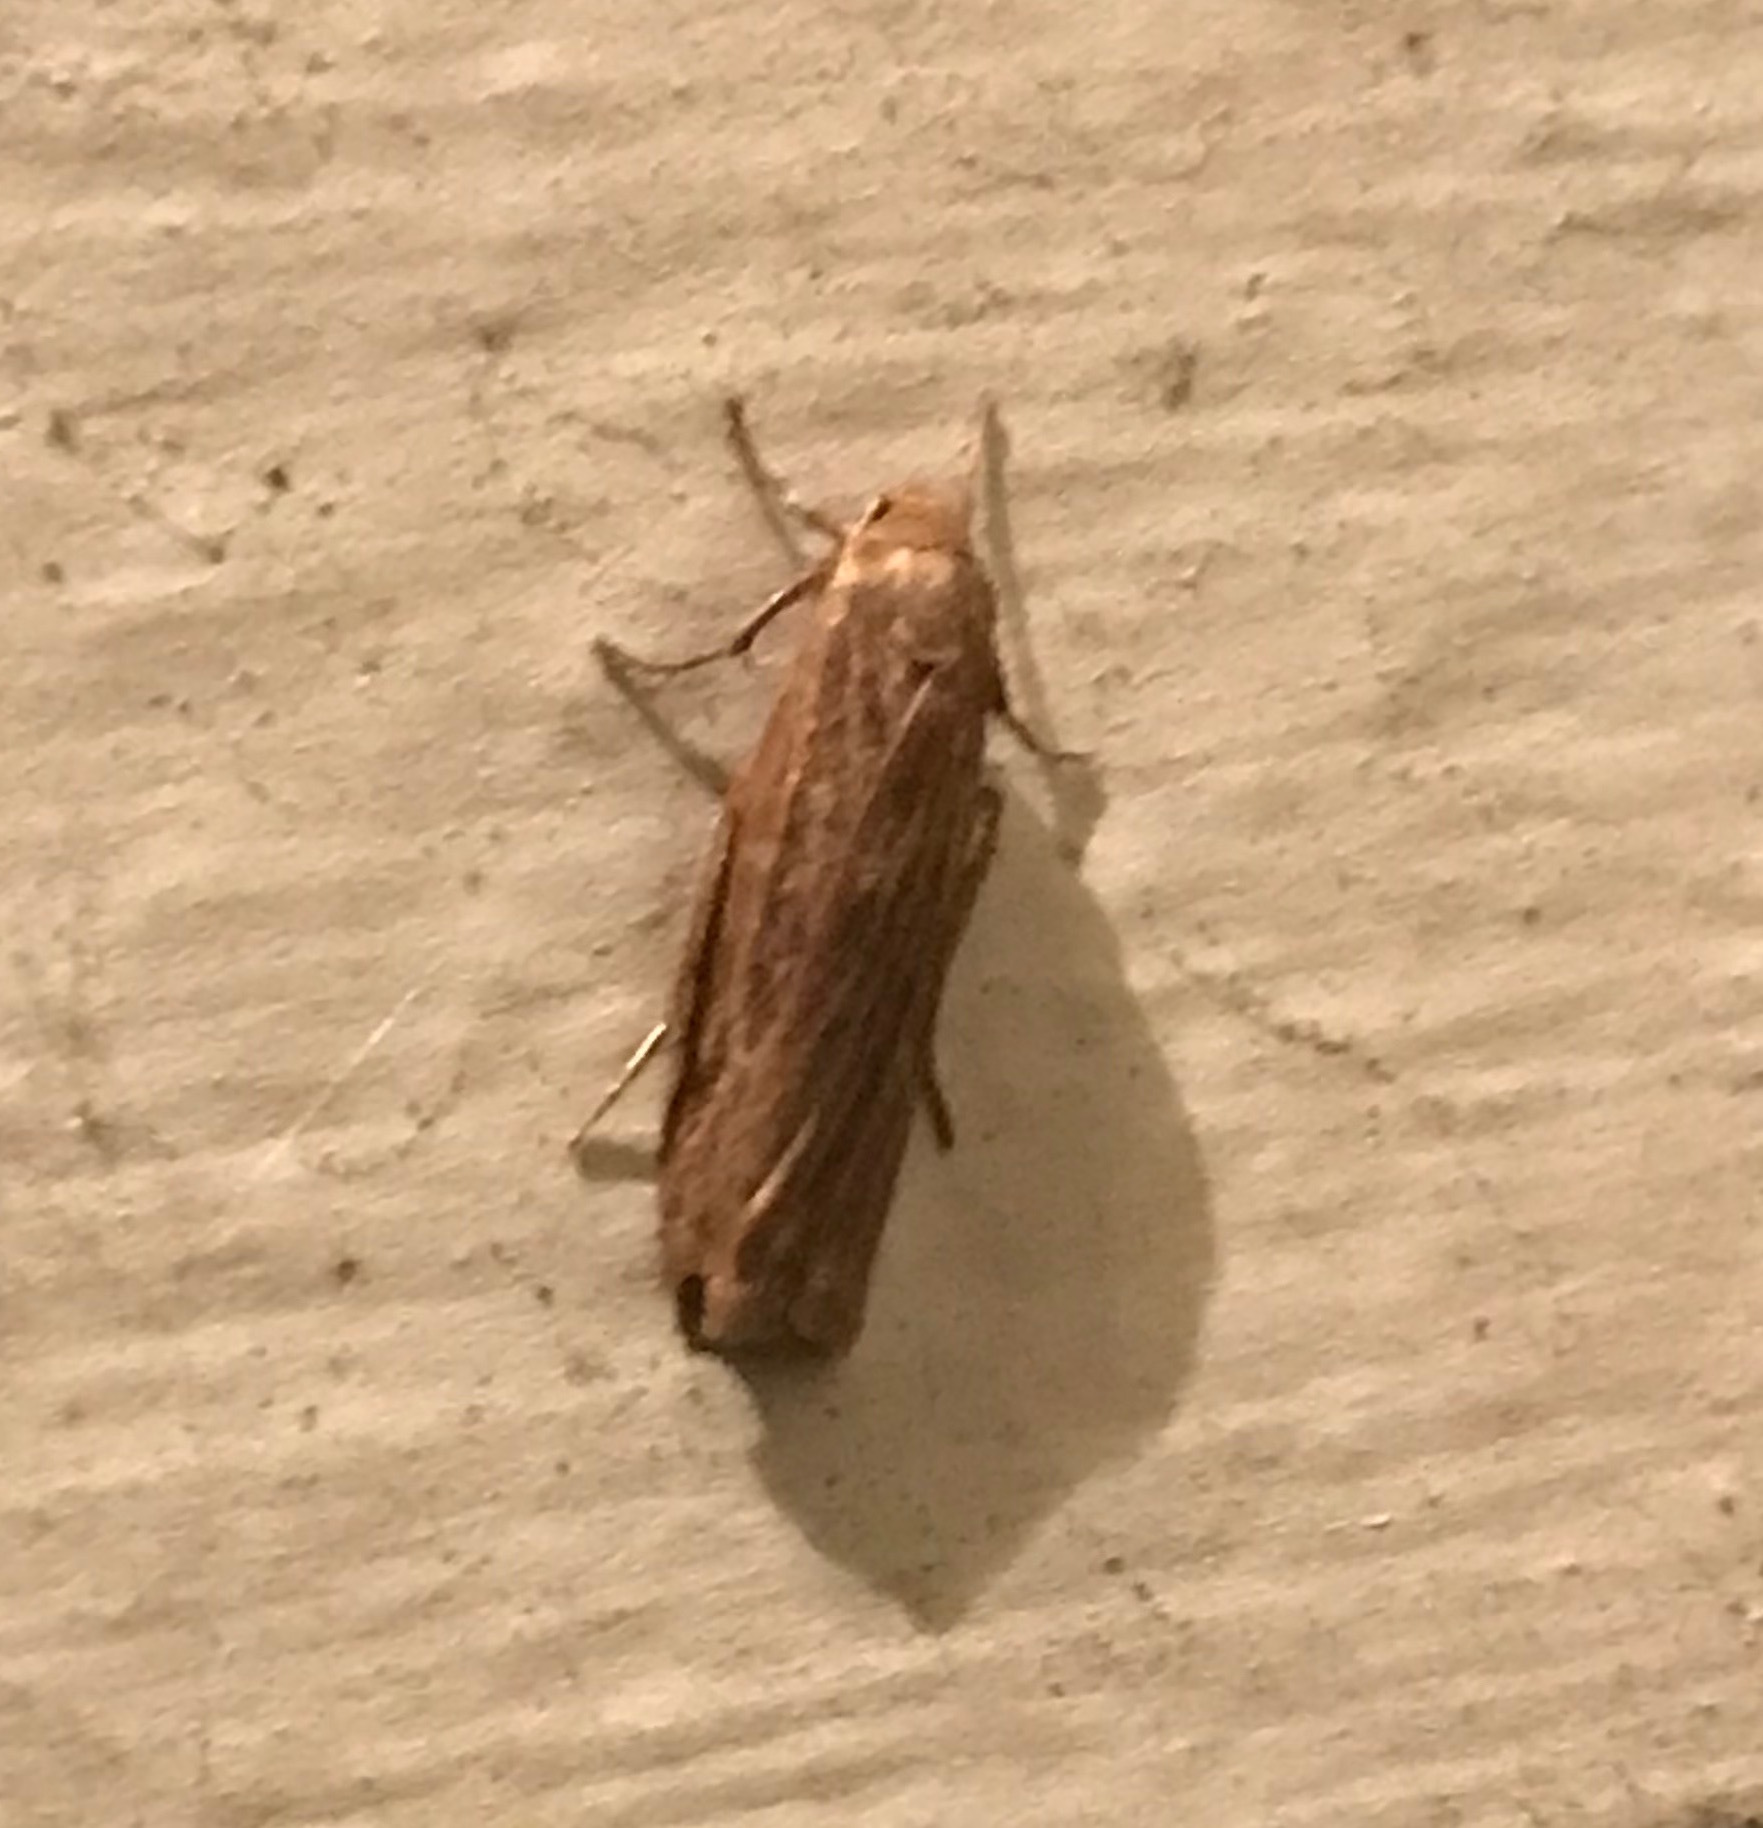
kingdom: Animalia
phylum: Arthropoda
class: Insecta
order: Lepidoptera
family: Erebidae
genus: Crambidia
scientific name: Crambidia pallida
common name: Pale lichen moth
